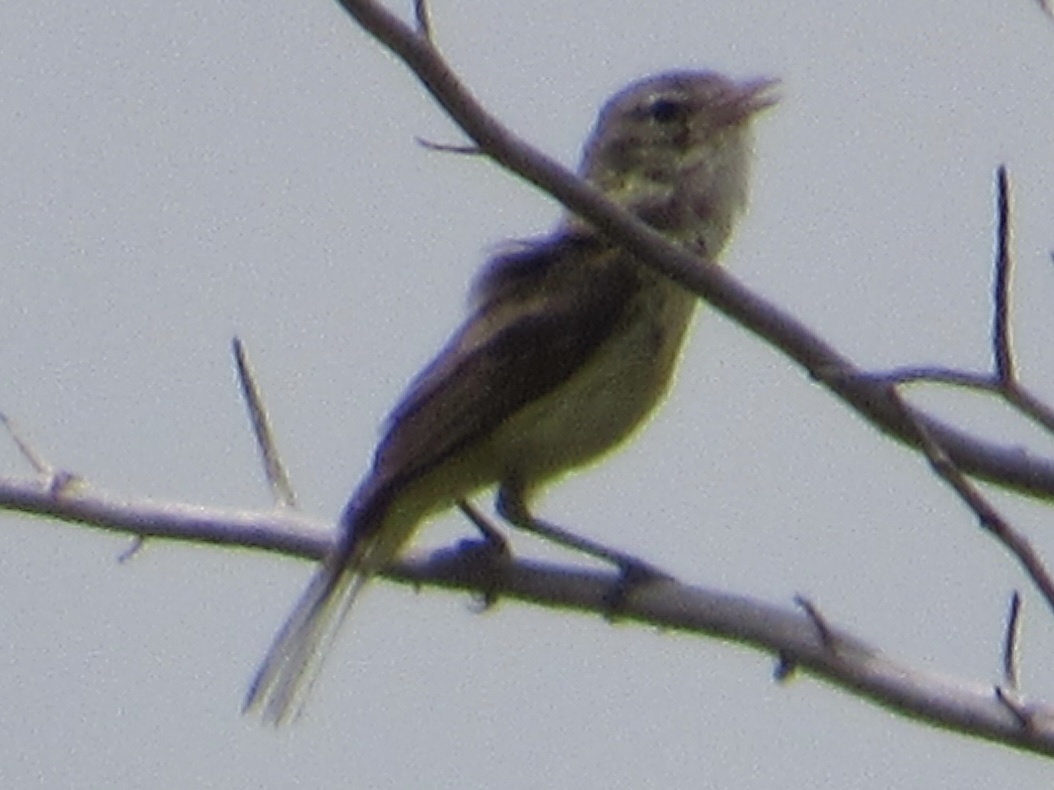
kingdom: Animalia
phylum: Chordata
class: Aves
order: Passeriformes
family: Vireonidae
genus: Vireo
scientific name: Vireo bellii
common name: Bell's vireo
